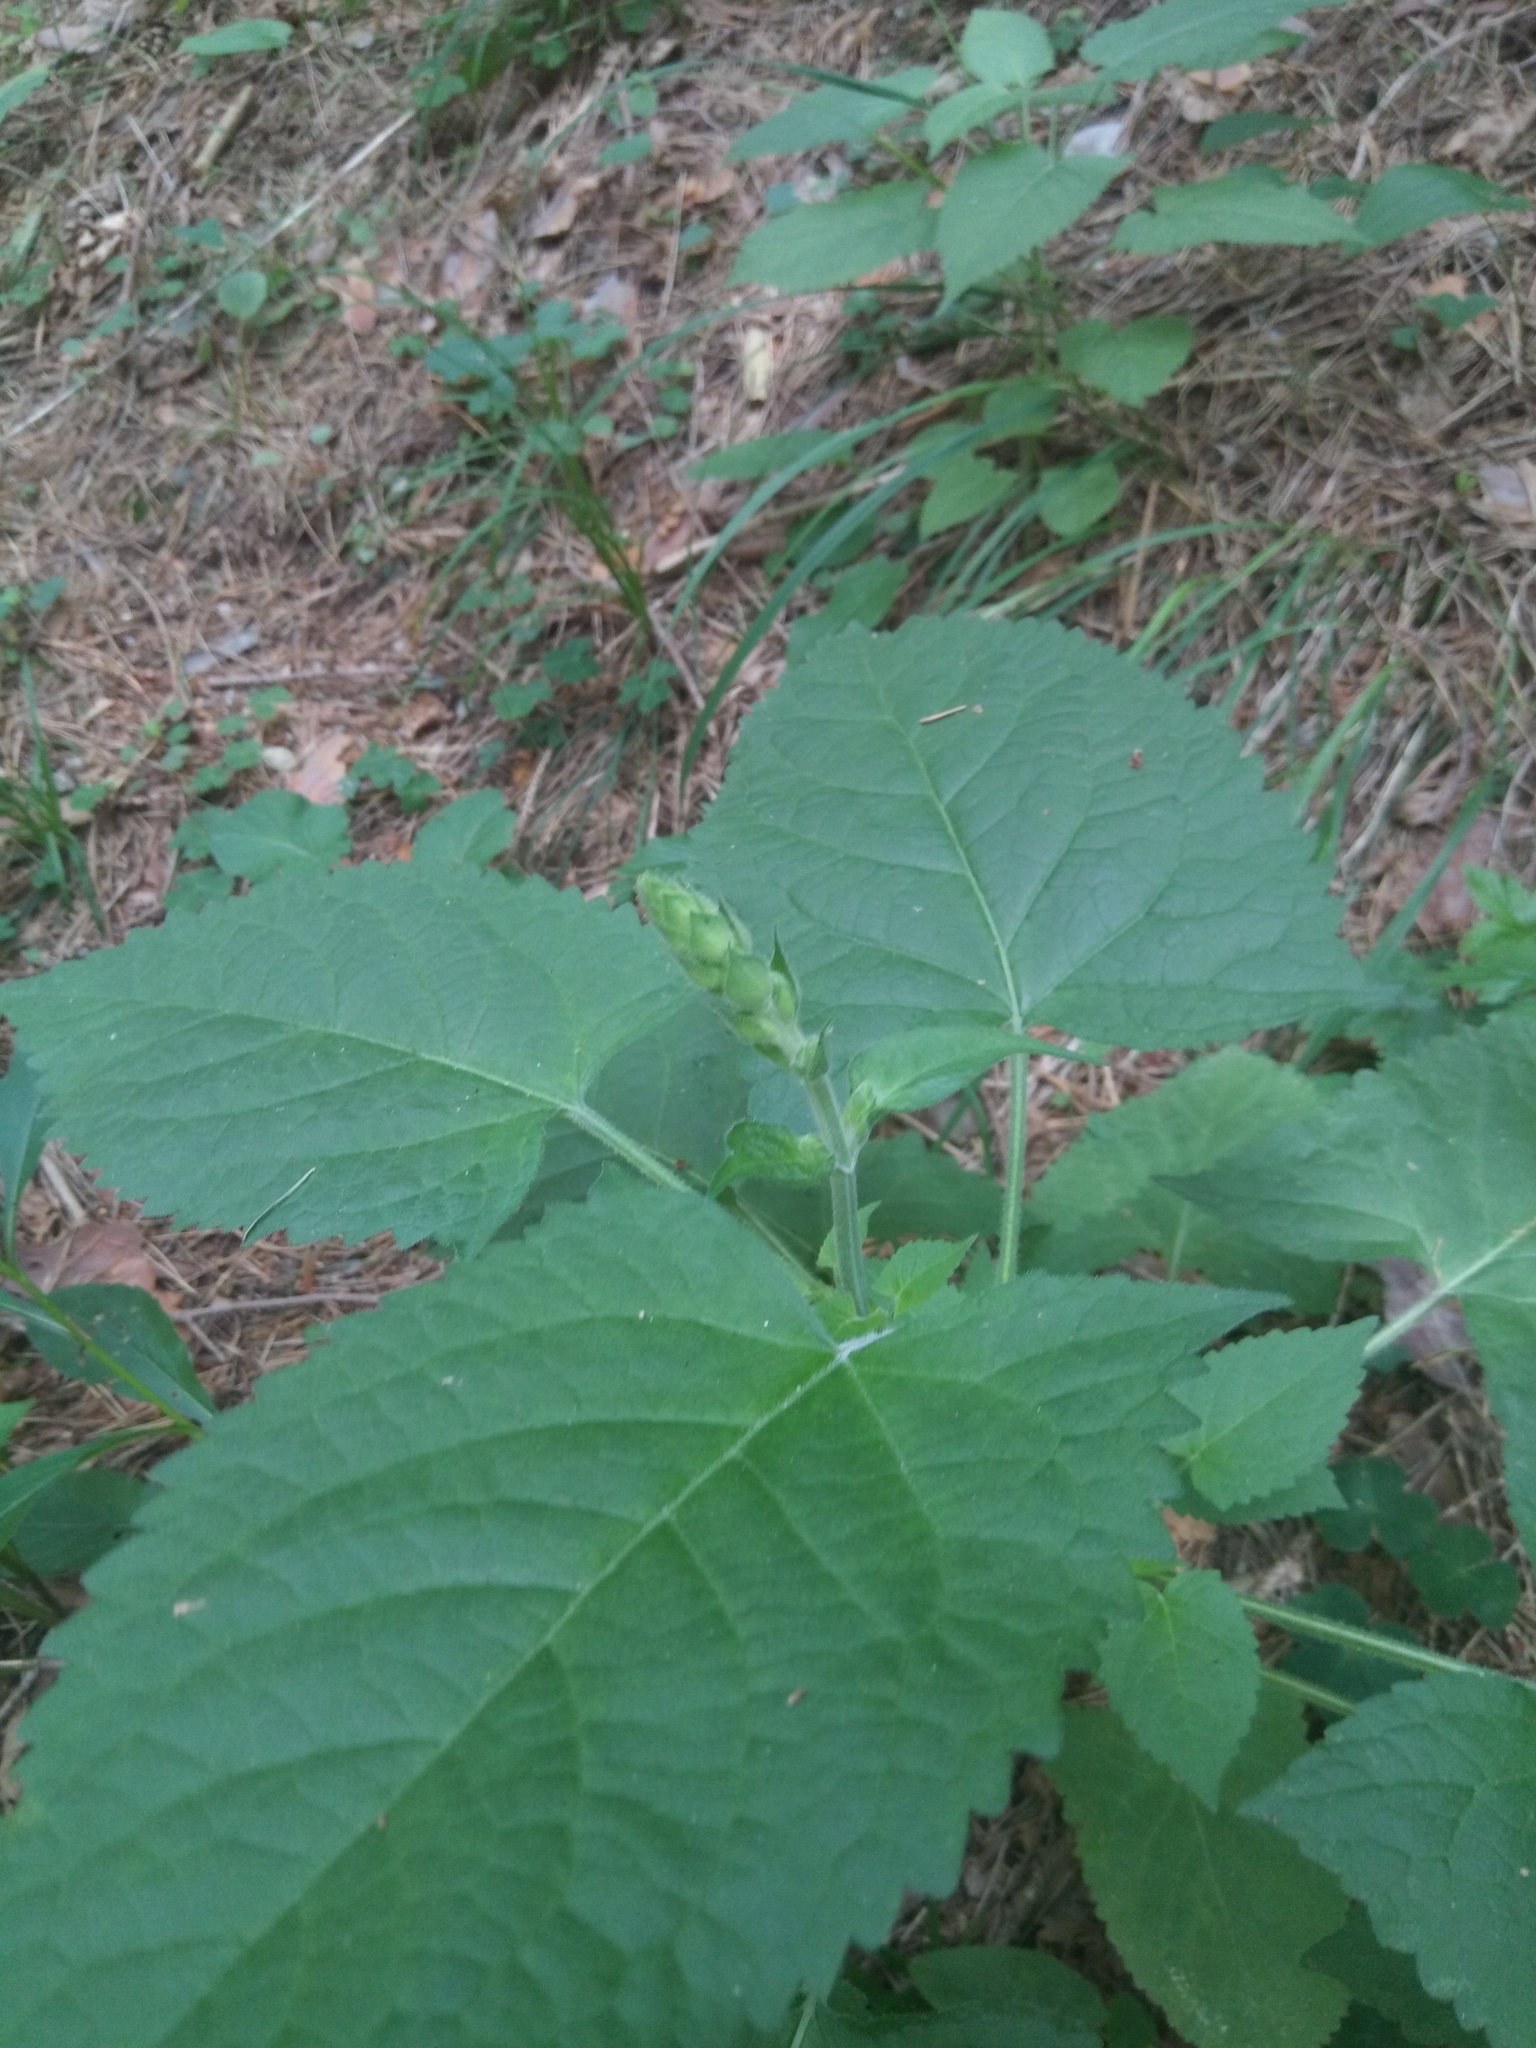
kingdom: Plantae
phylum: Tracheophyta
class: Magnoliopsida
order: Lamiales
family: Lamiaceae
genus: Salvia
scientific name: Salvia glutinosa
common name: Sticky clary
